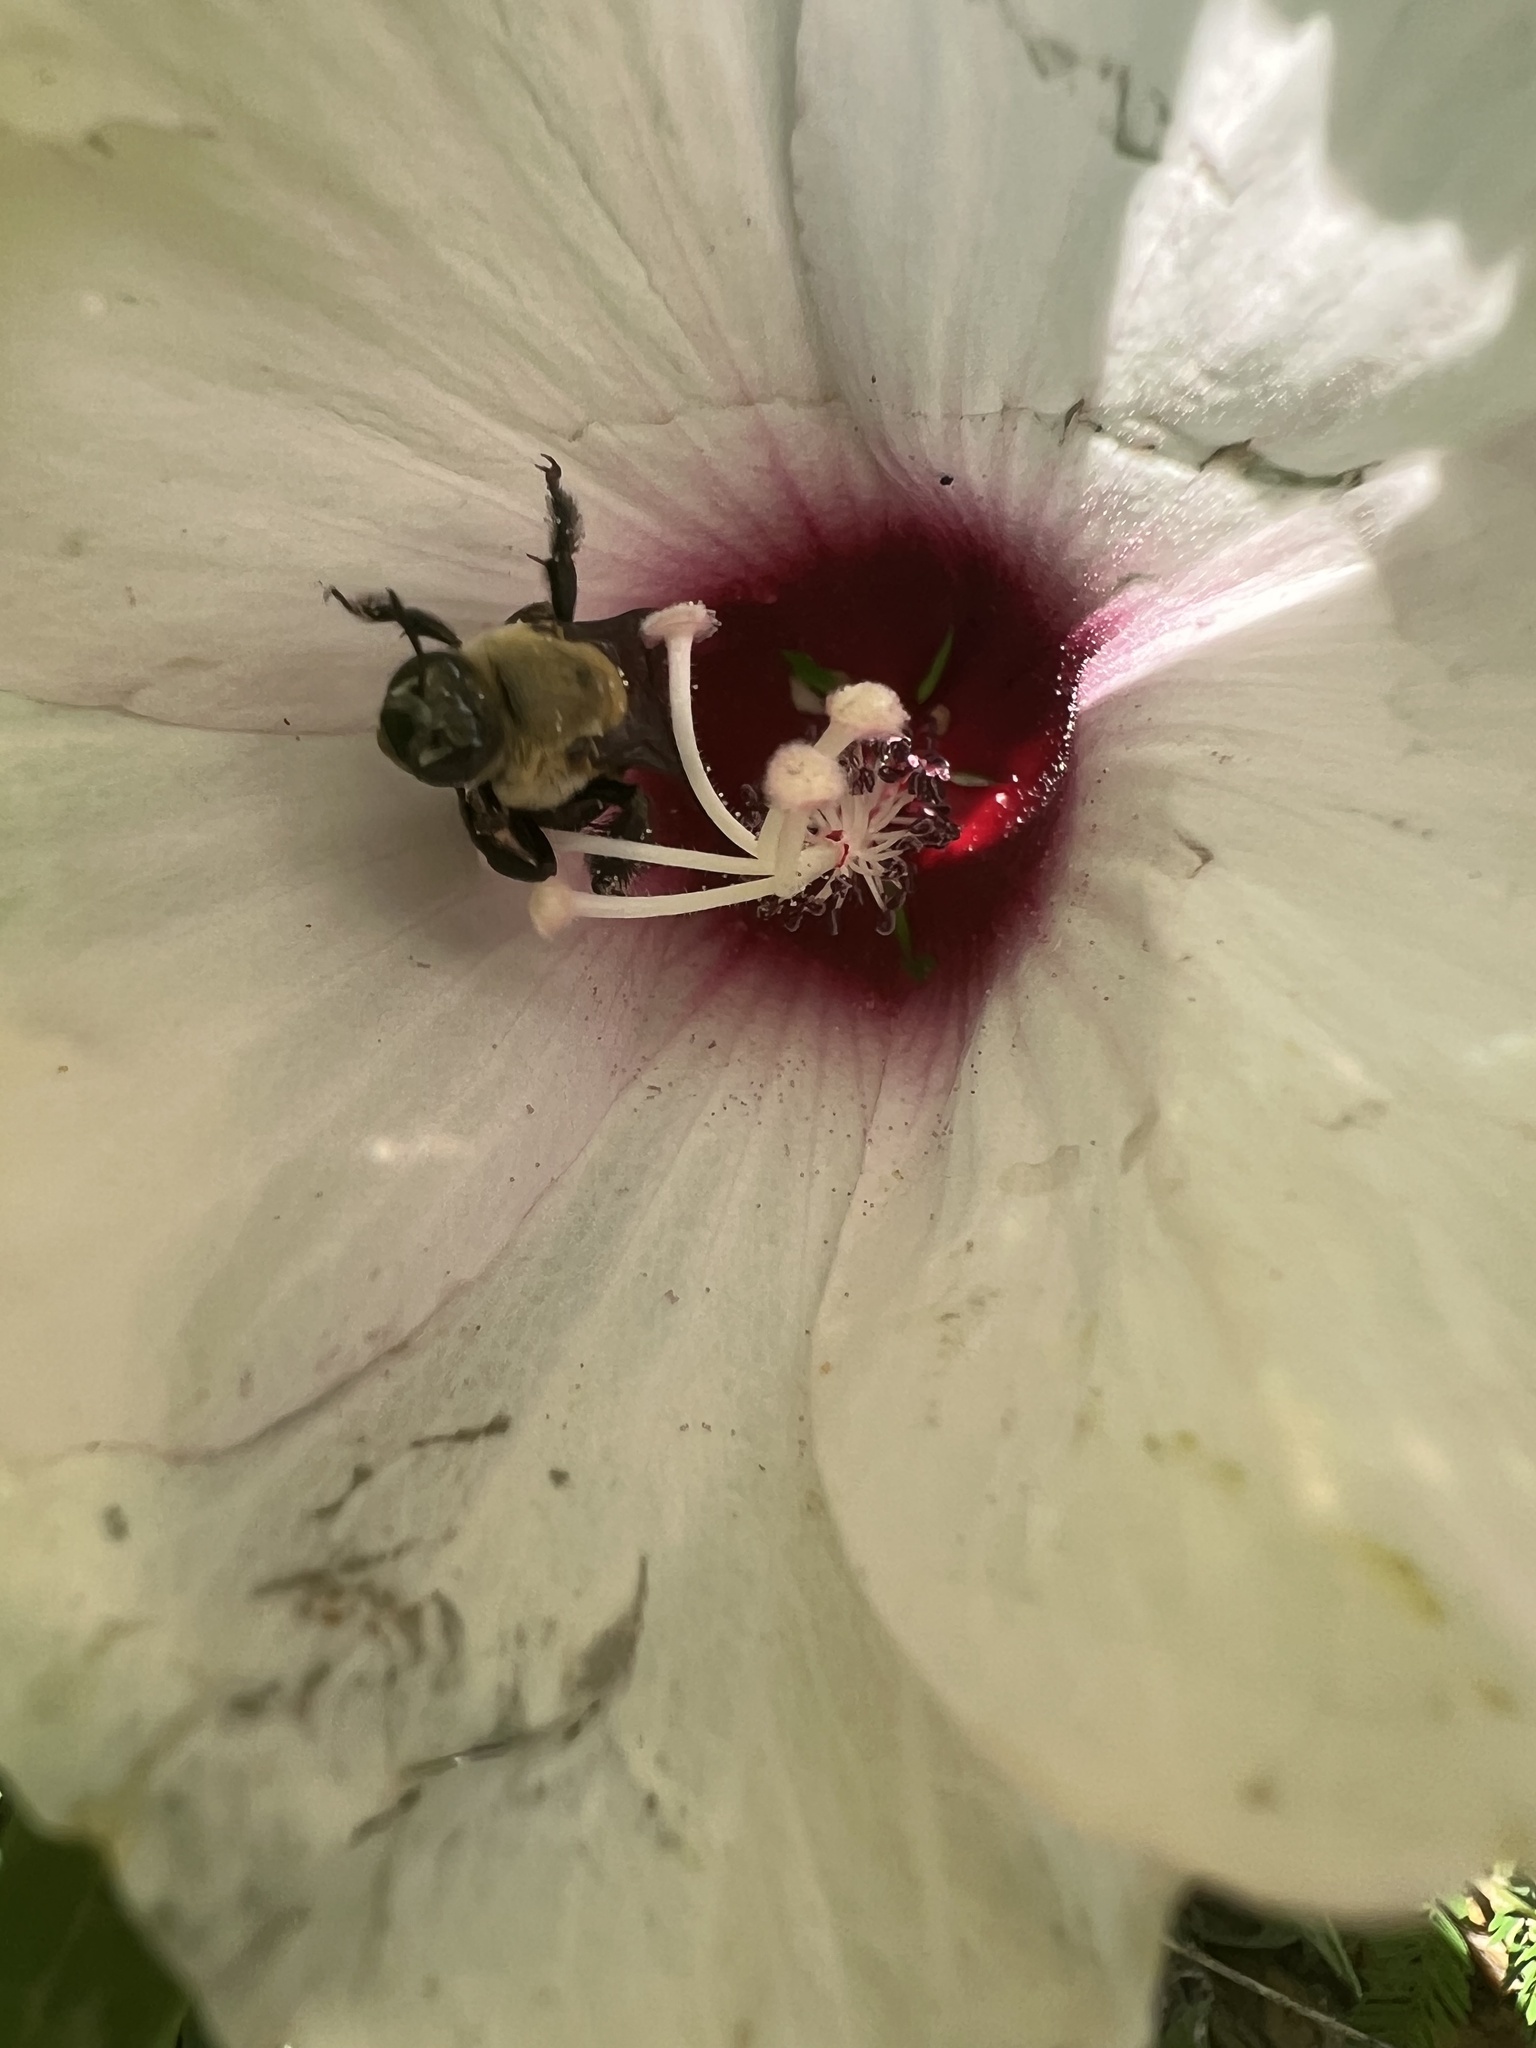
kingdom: Animalia
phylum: Arthropoda
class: Insecta
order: Hymenoptera
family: Apidae
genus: Ptilothrix
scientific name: Ptilothrix bombiformis
